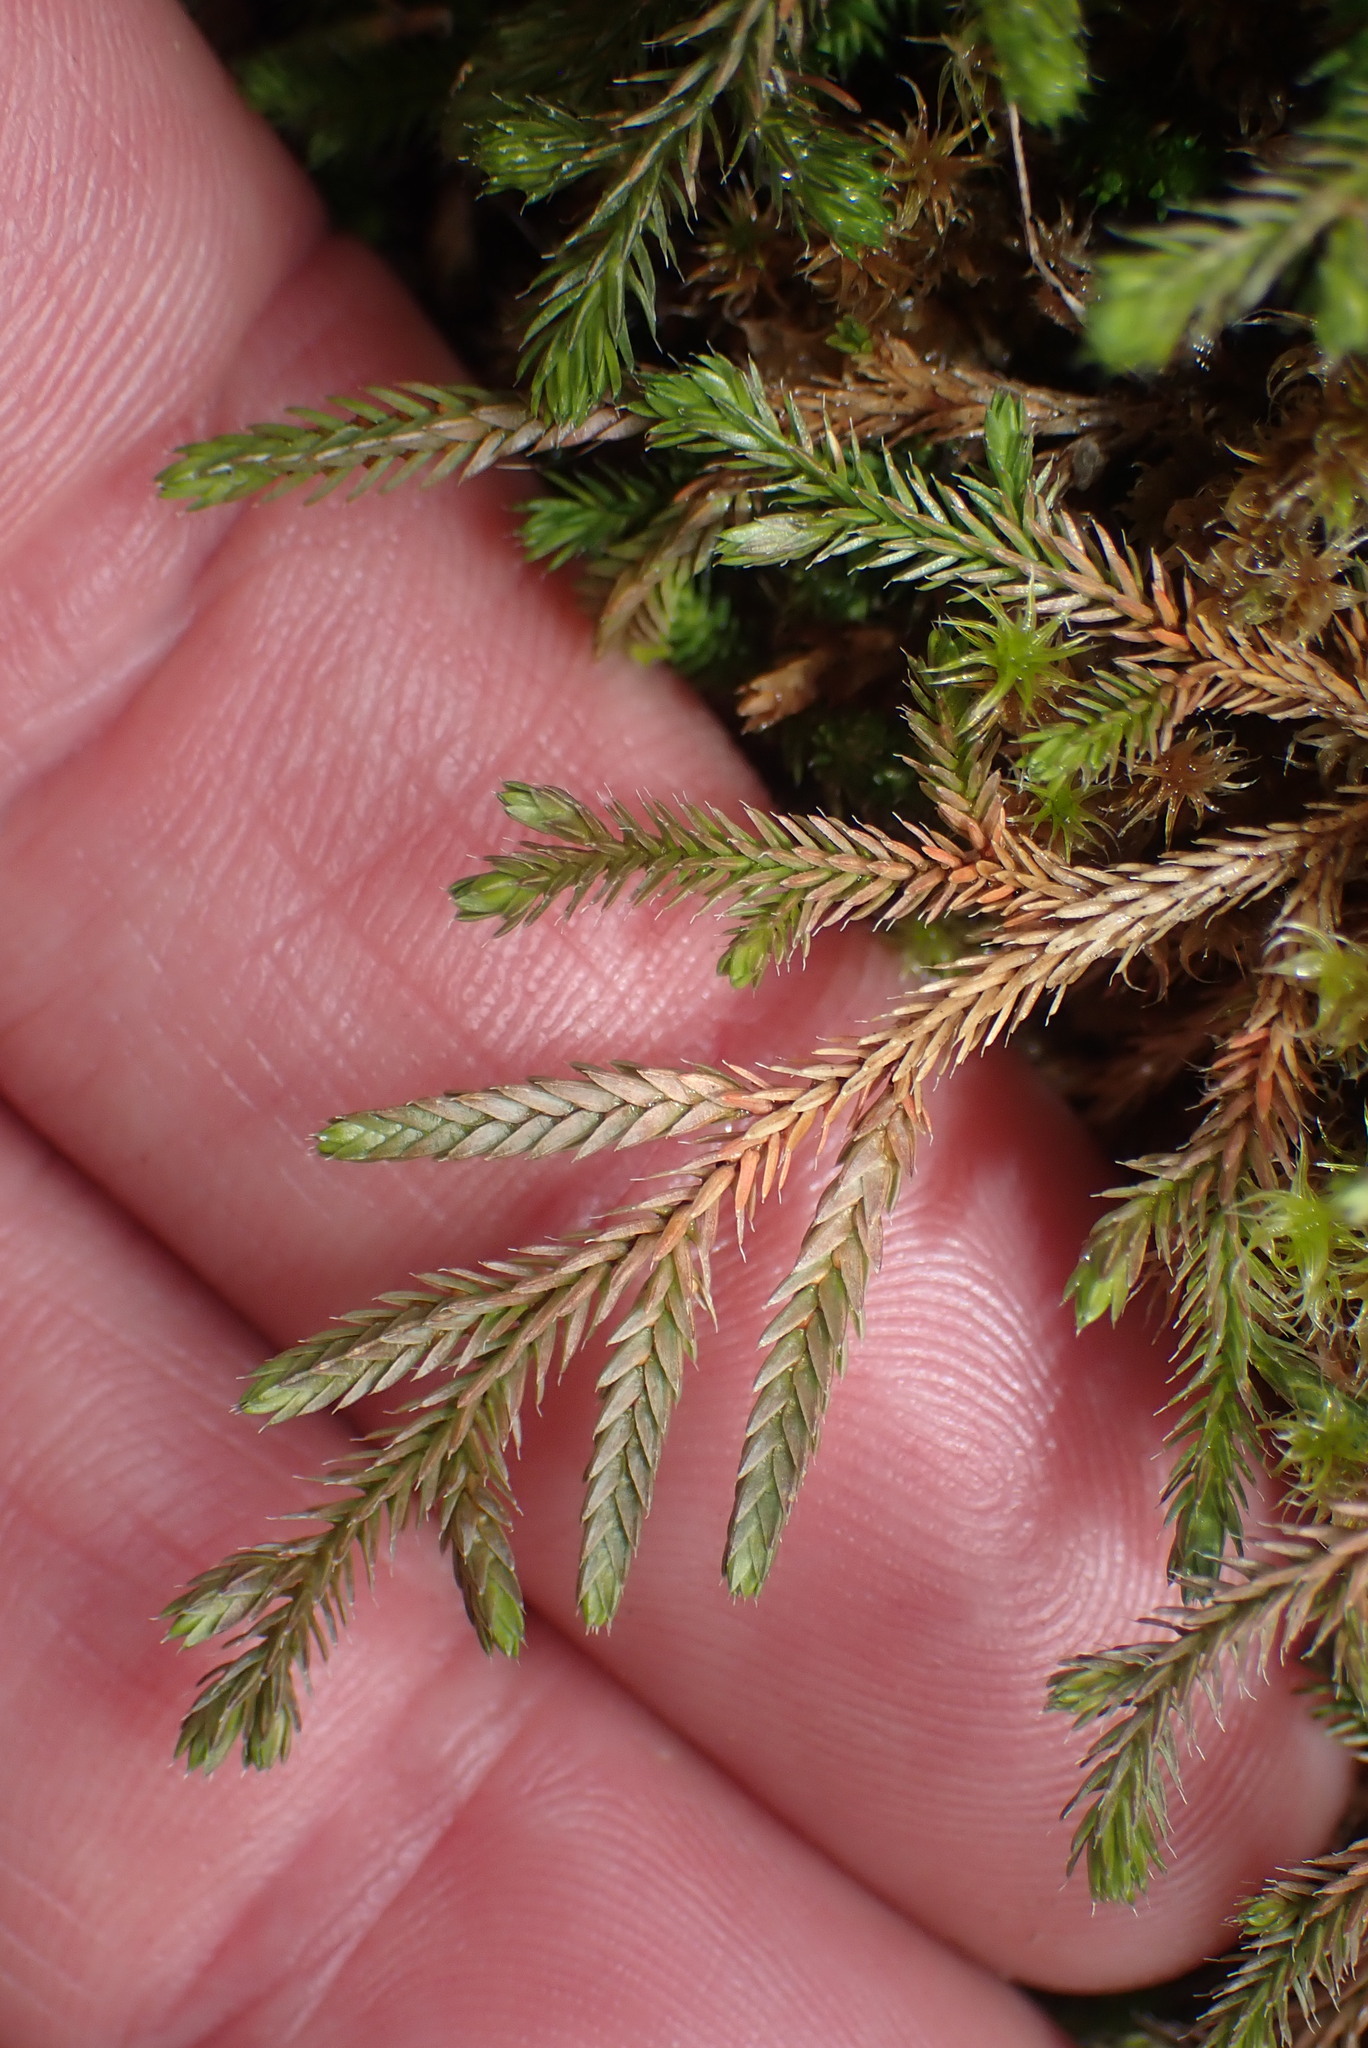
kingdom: Plantae
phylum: Tracheophyta
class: Lycopodiopsida
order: Selaginellales
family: Selaginellaceae
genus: Selaginella
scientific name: Selaginella wallacei
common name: Wallace's selaginella
